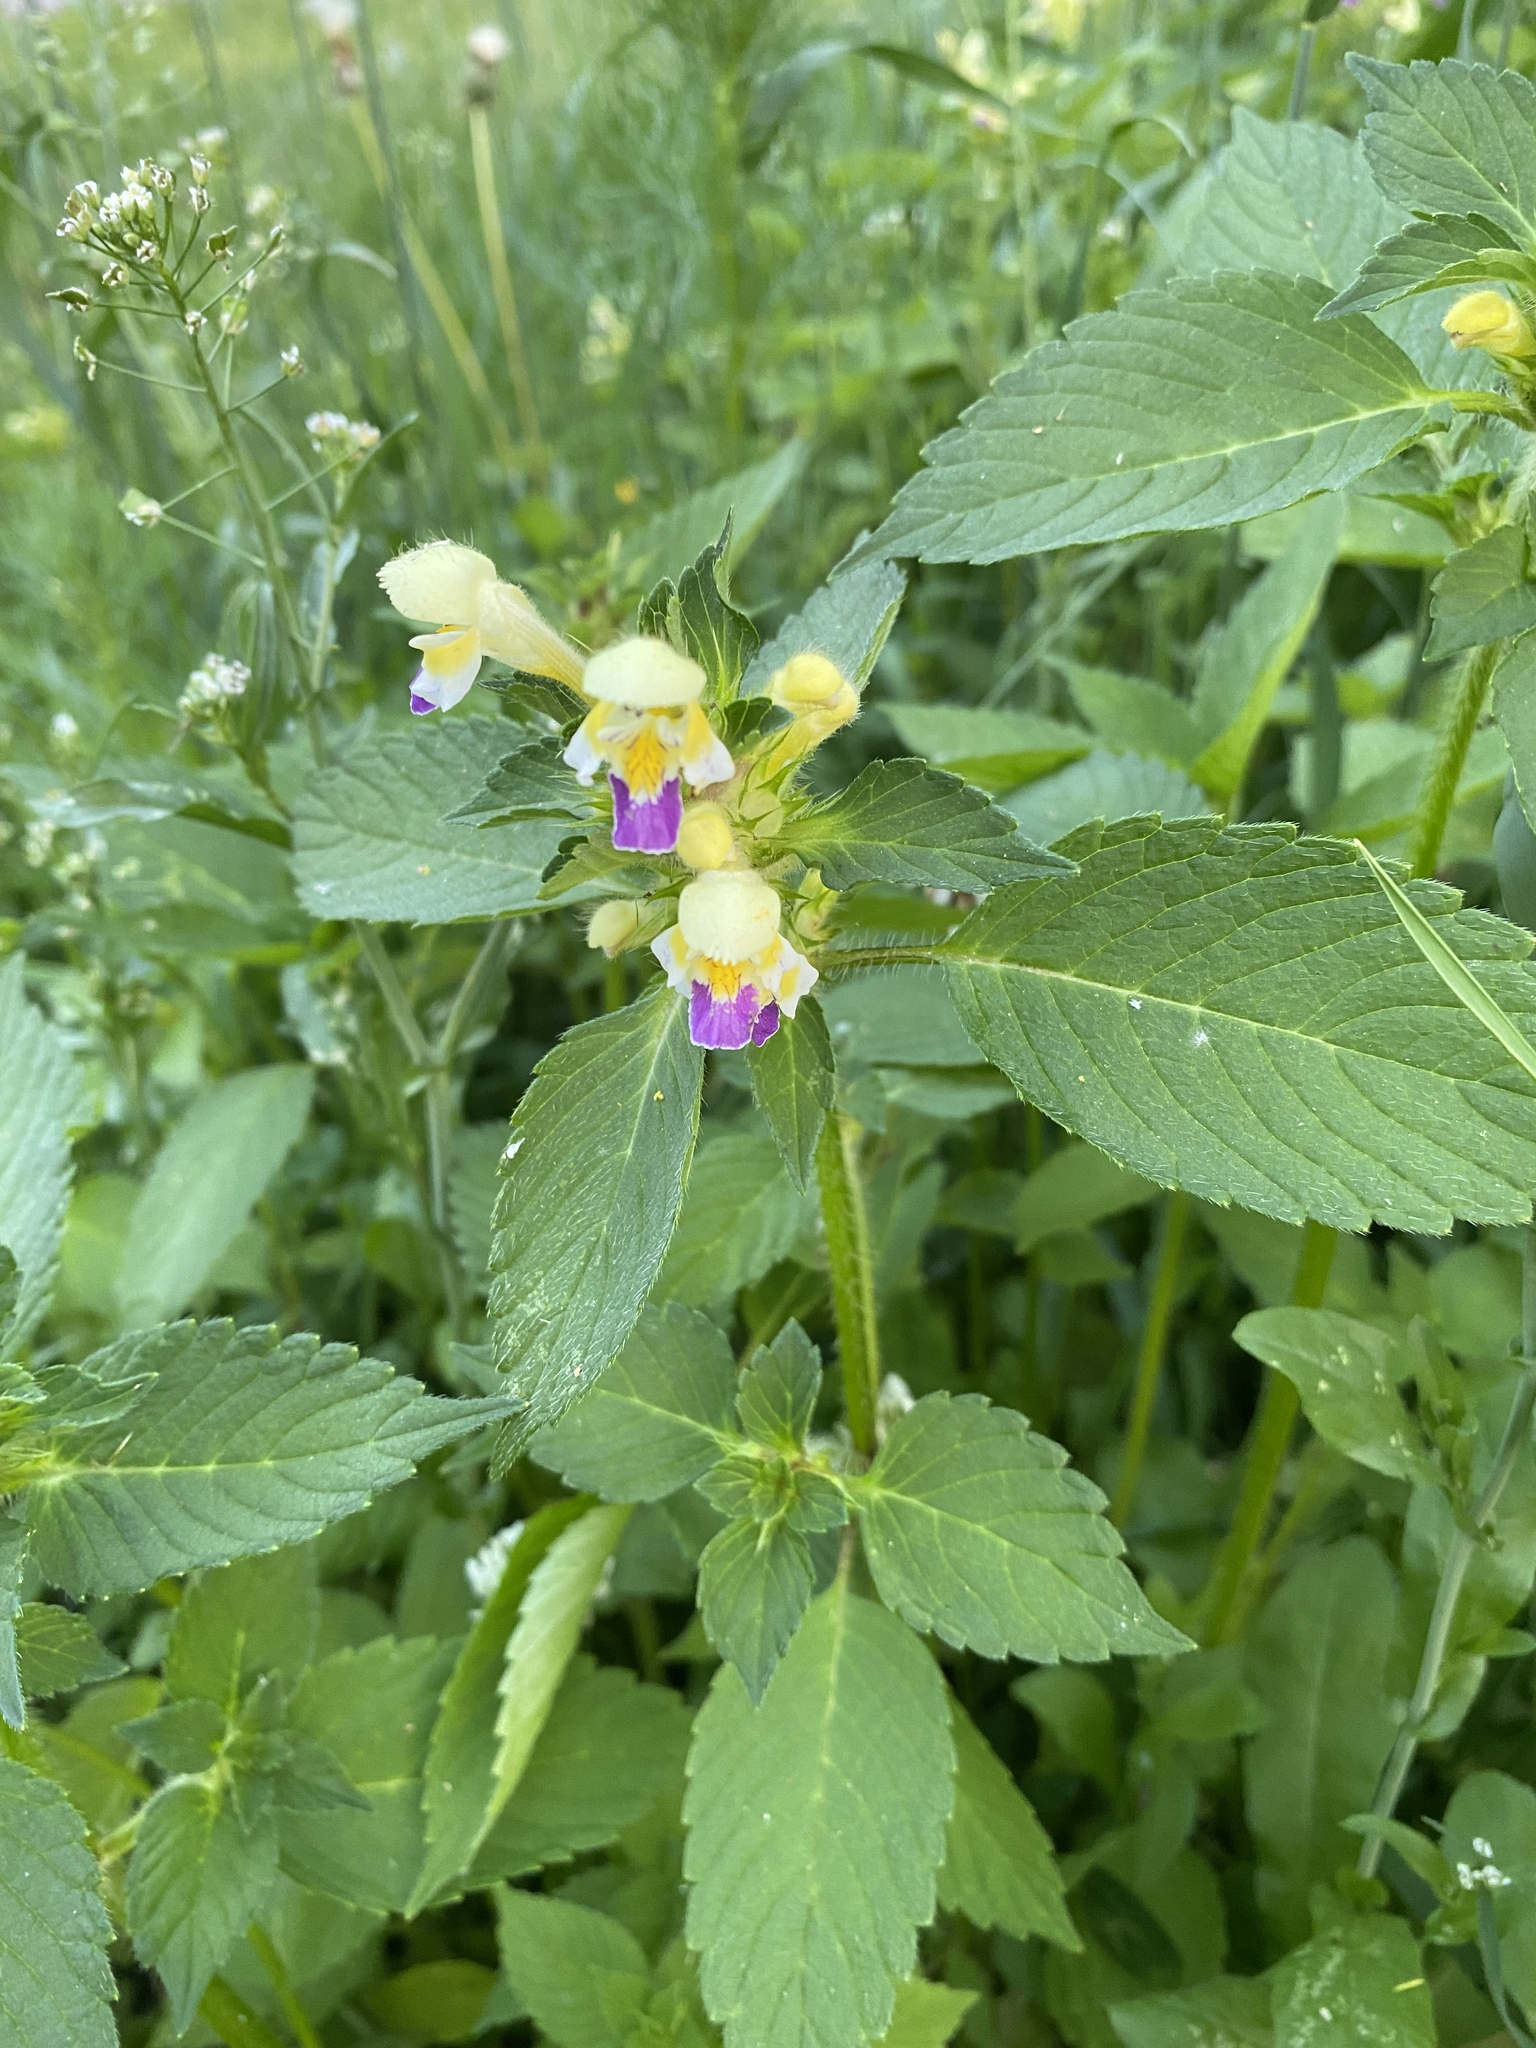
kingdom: Plantae
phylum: Tracheophyta
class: Magnoliopsida
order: Lamiales
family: Lamiaceae
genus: Galeopsis
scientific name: Galeopsis speciosa
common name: Large-flowered hemp-nettle
